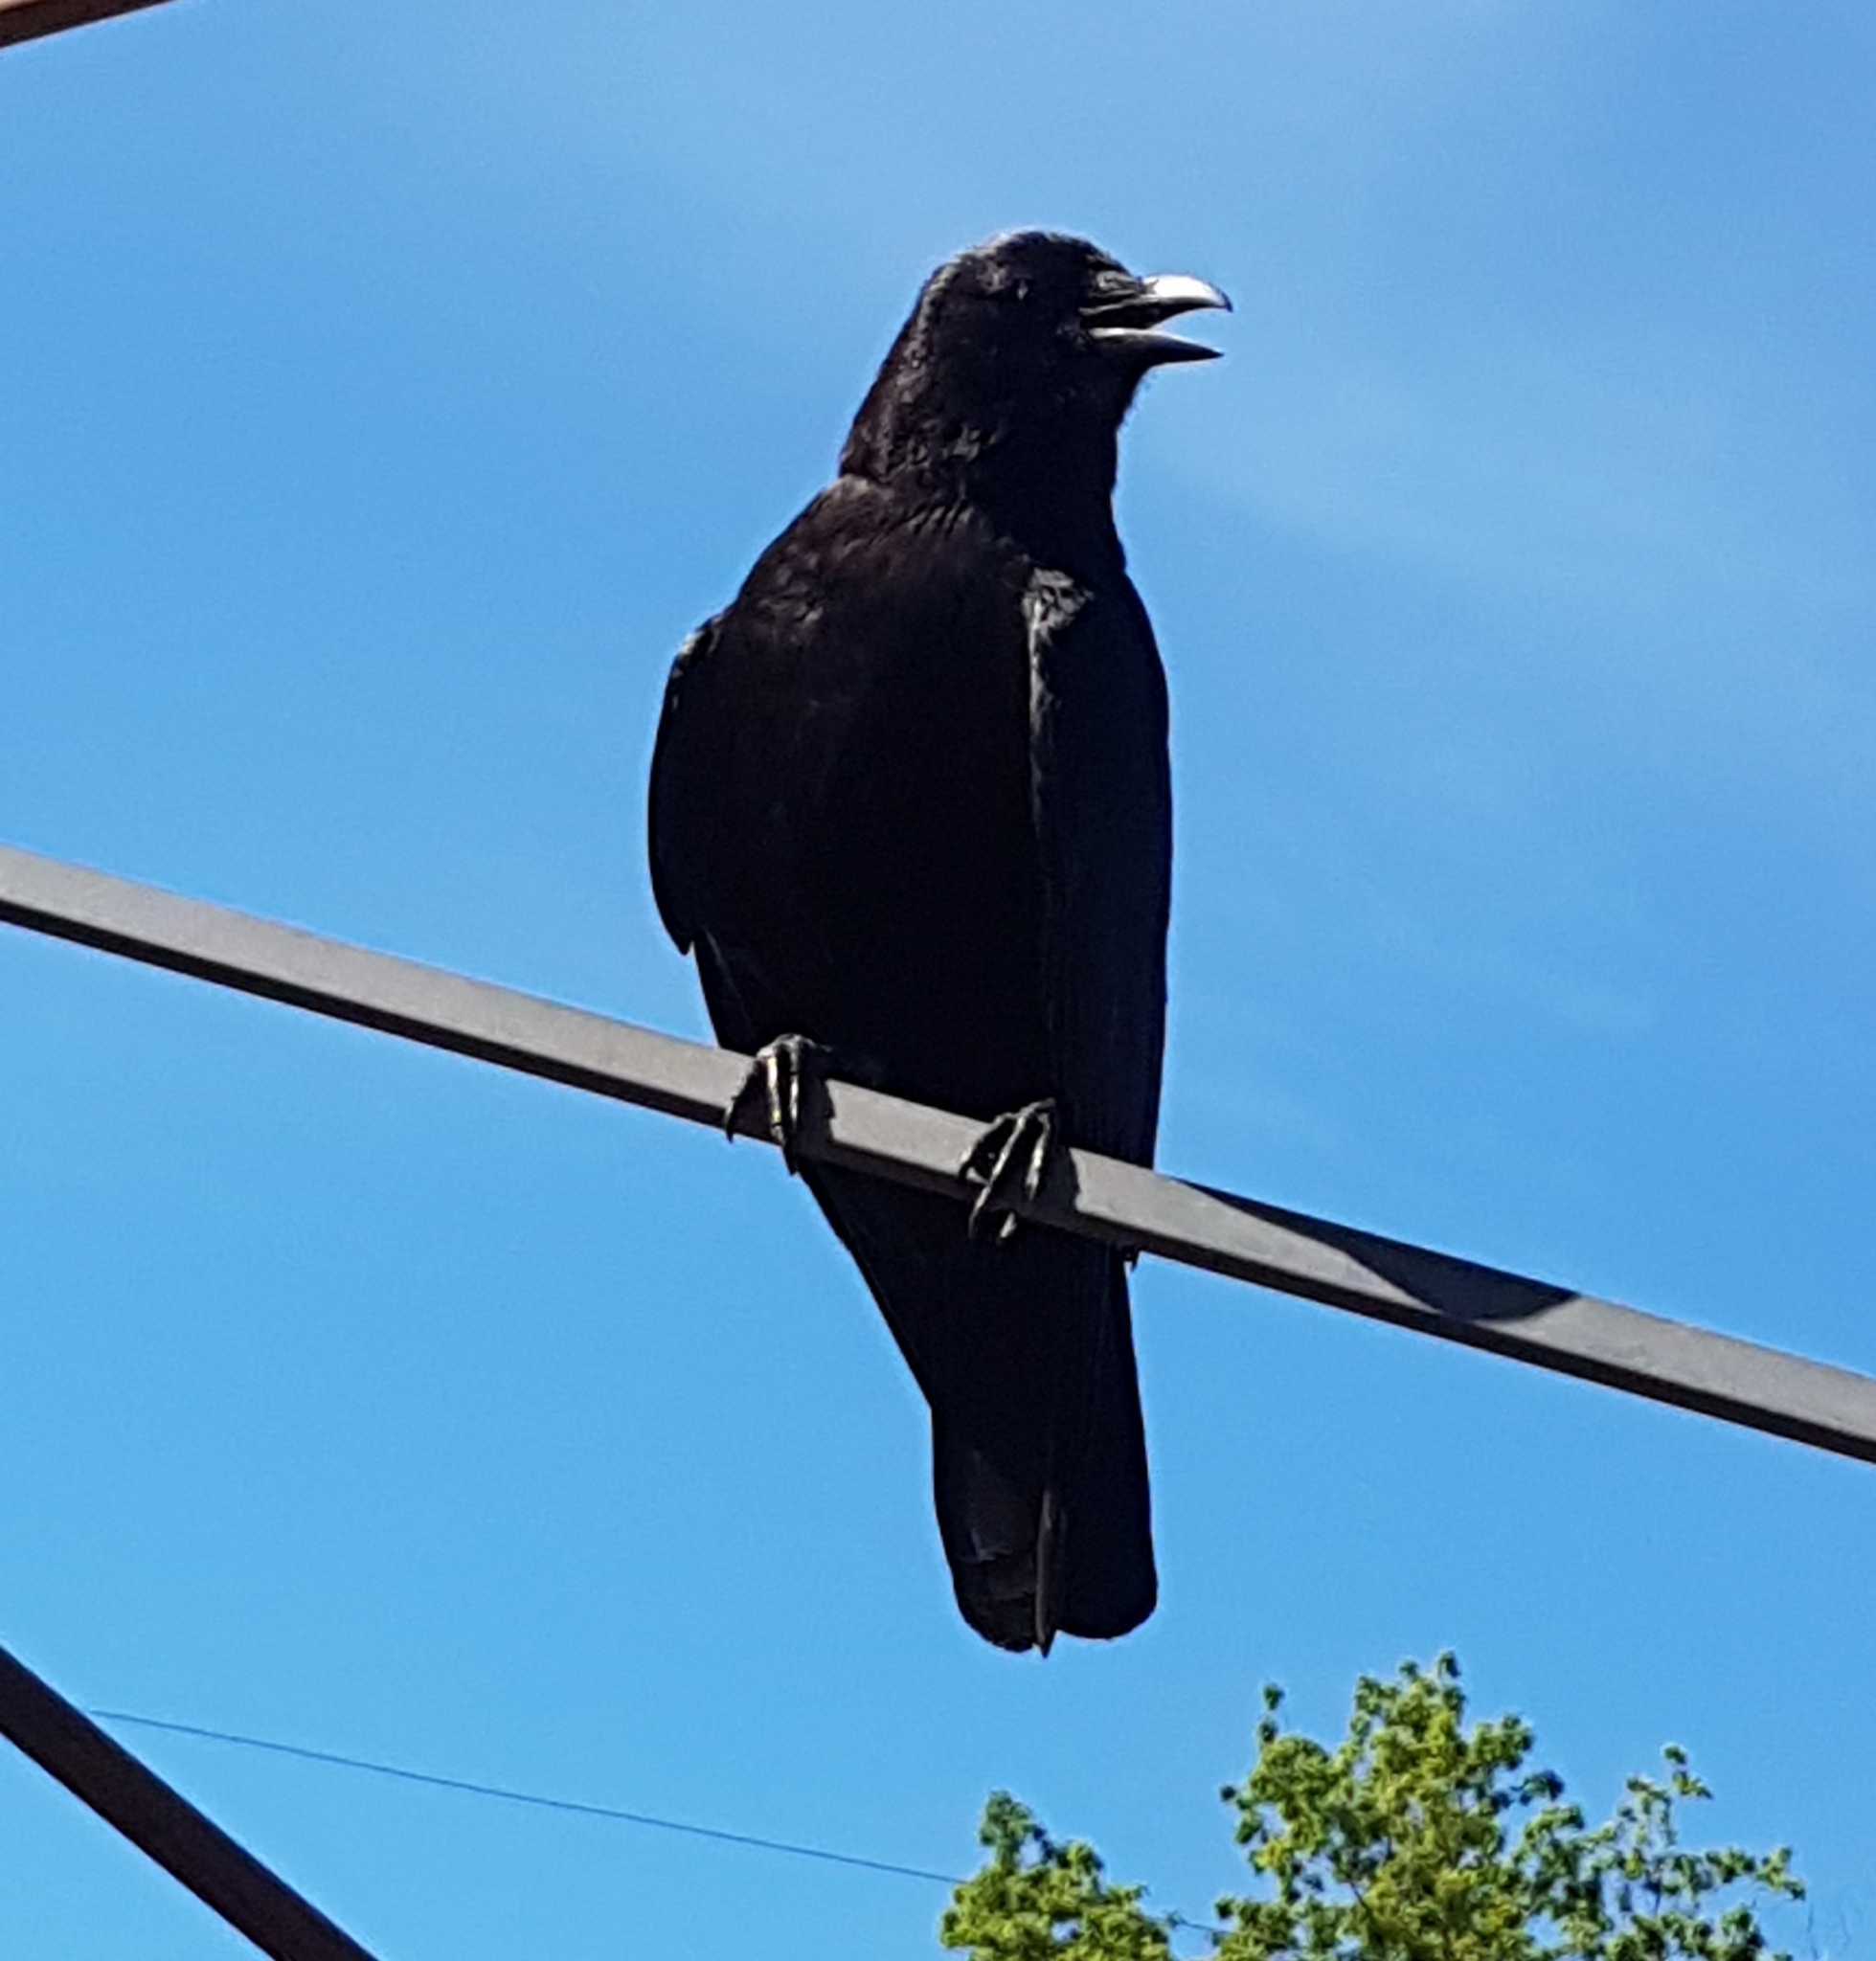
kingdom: Animalia
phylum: Chordata
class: Aves
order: Passeriformes
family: Corvidae
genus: Corvus
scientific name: Corvus brachyrhynchos
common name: American crow
